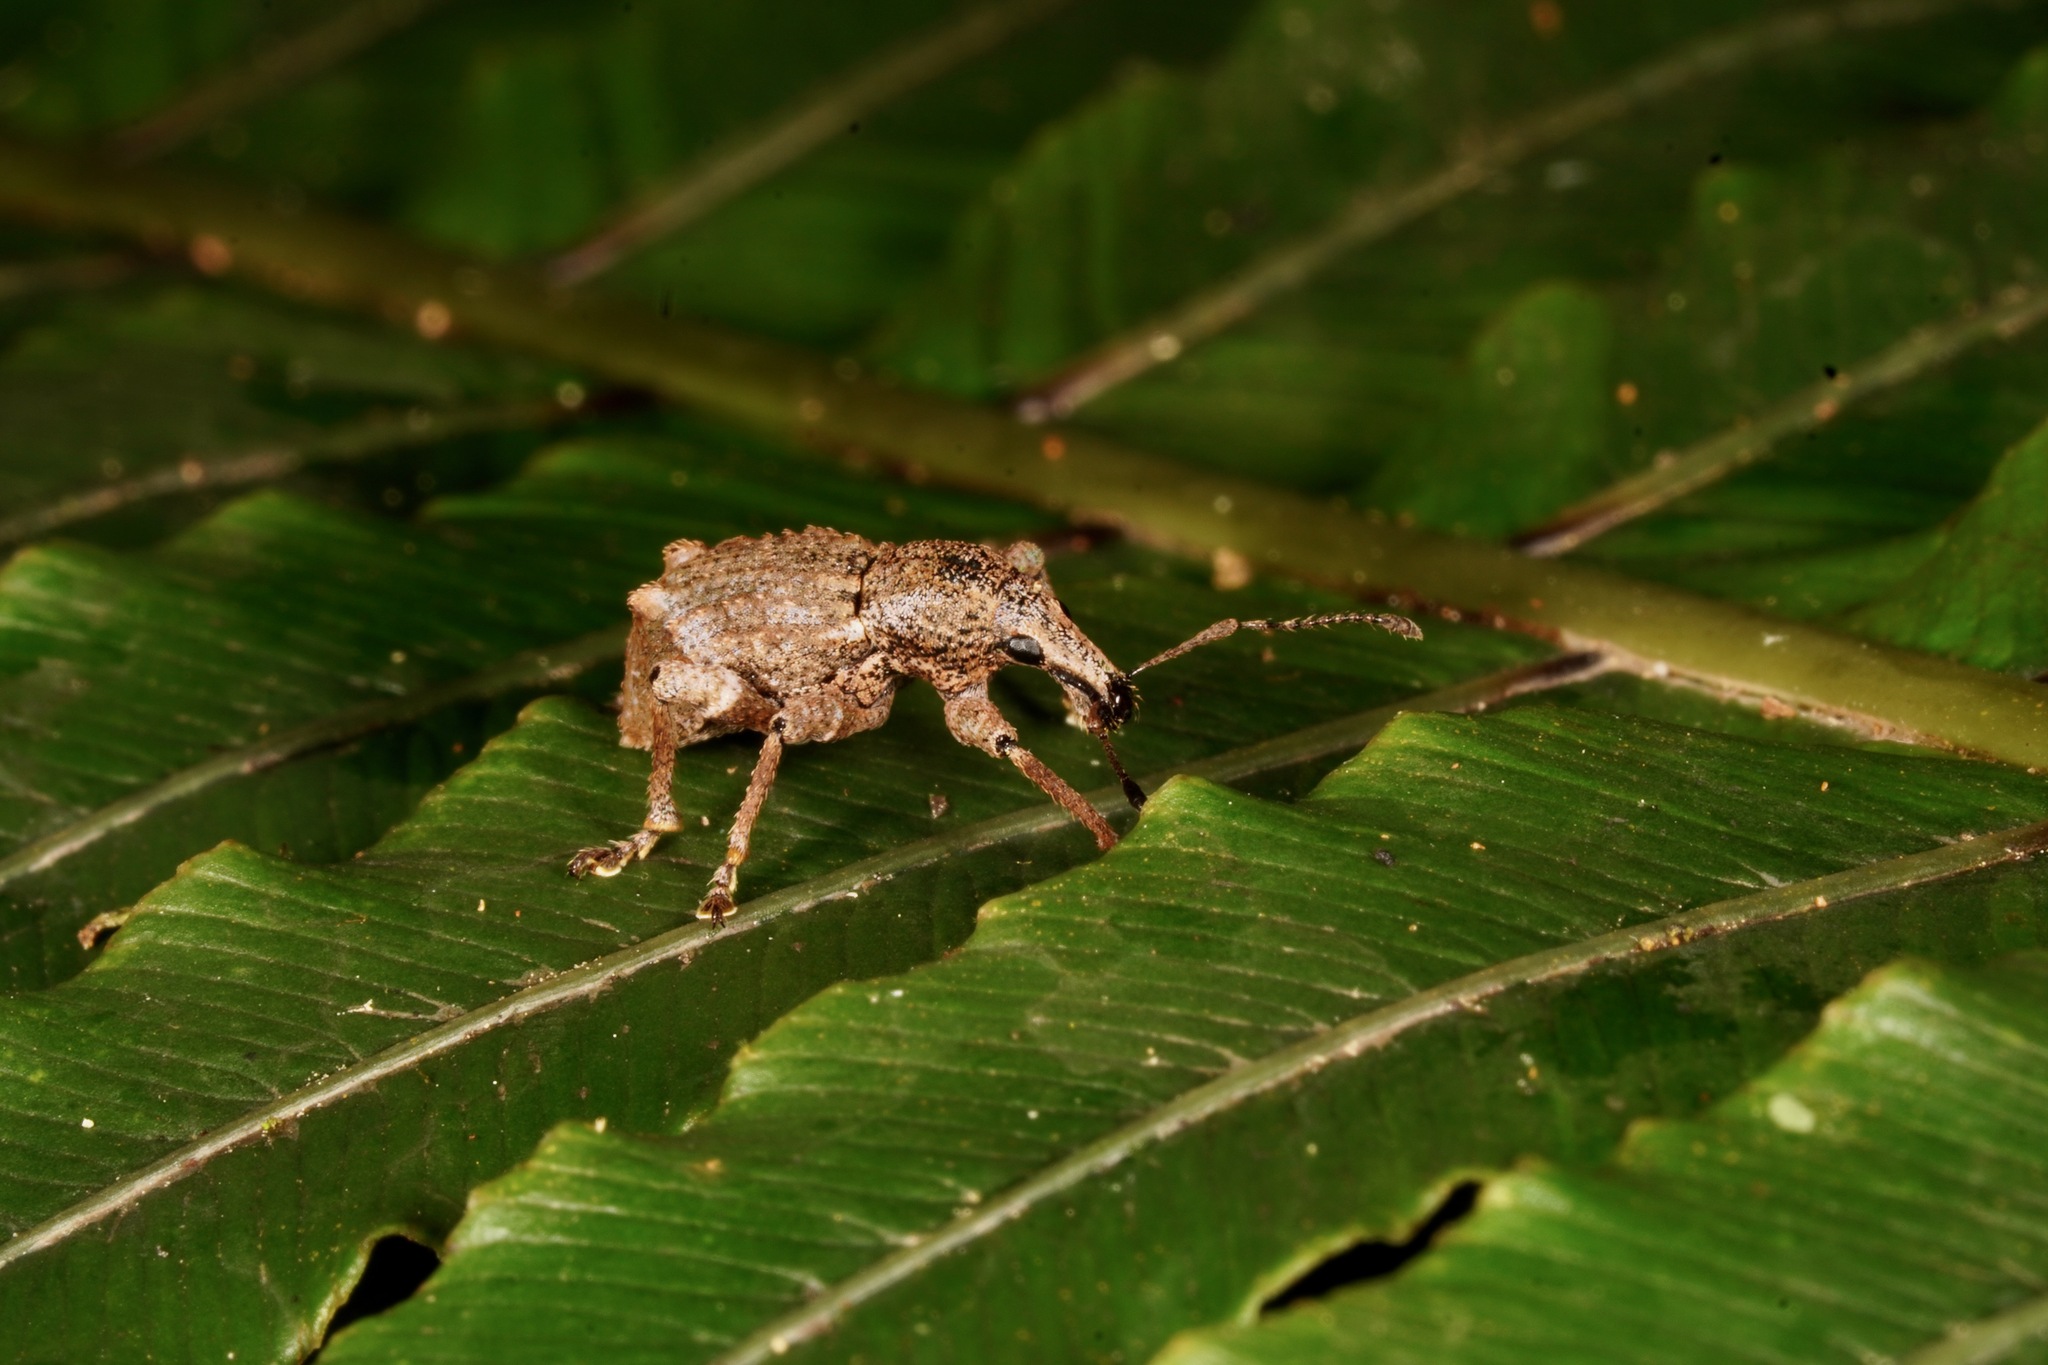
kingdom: Animalia
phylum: Arthropoda
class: Insecta
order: Coleoptera
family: Curculionidae
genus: Catoptes
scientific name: Catoptes binodis
